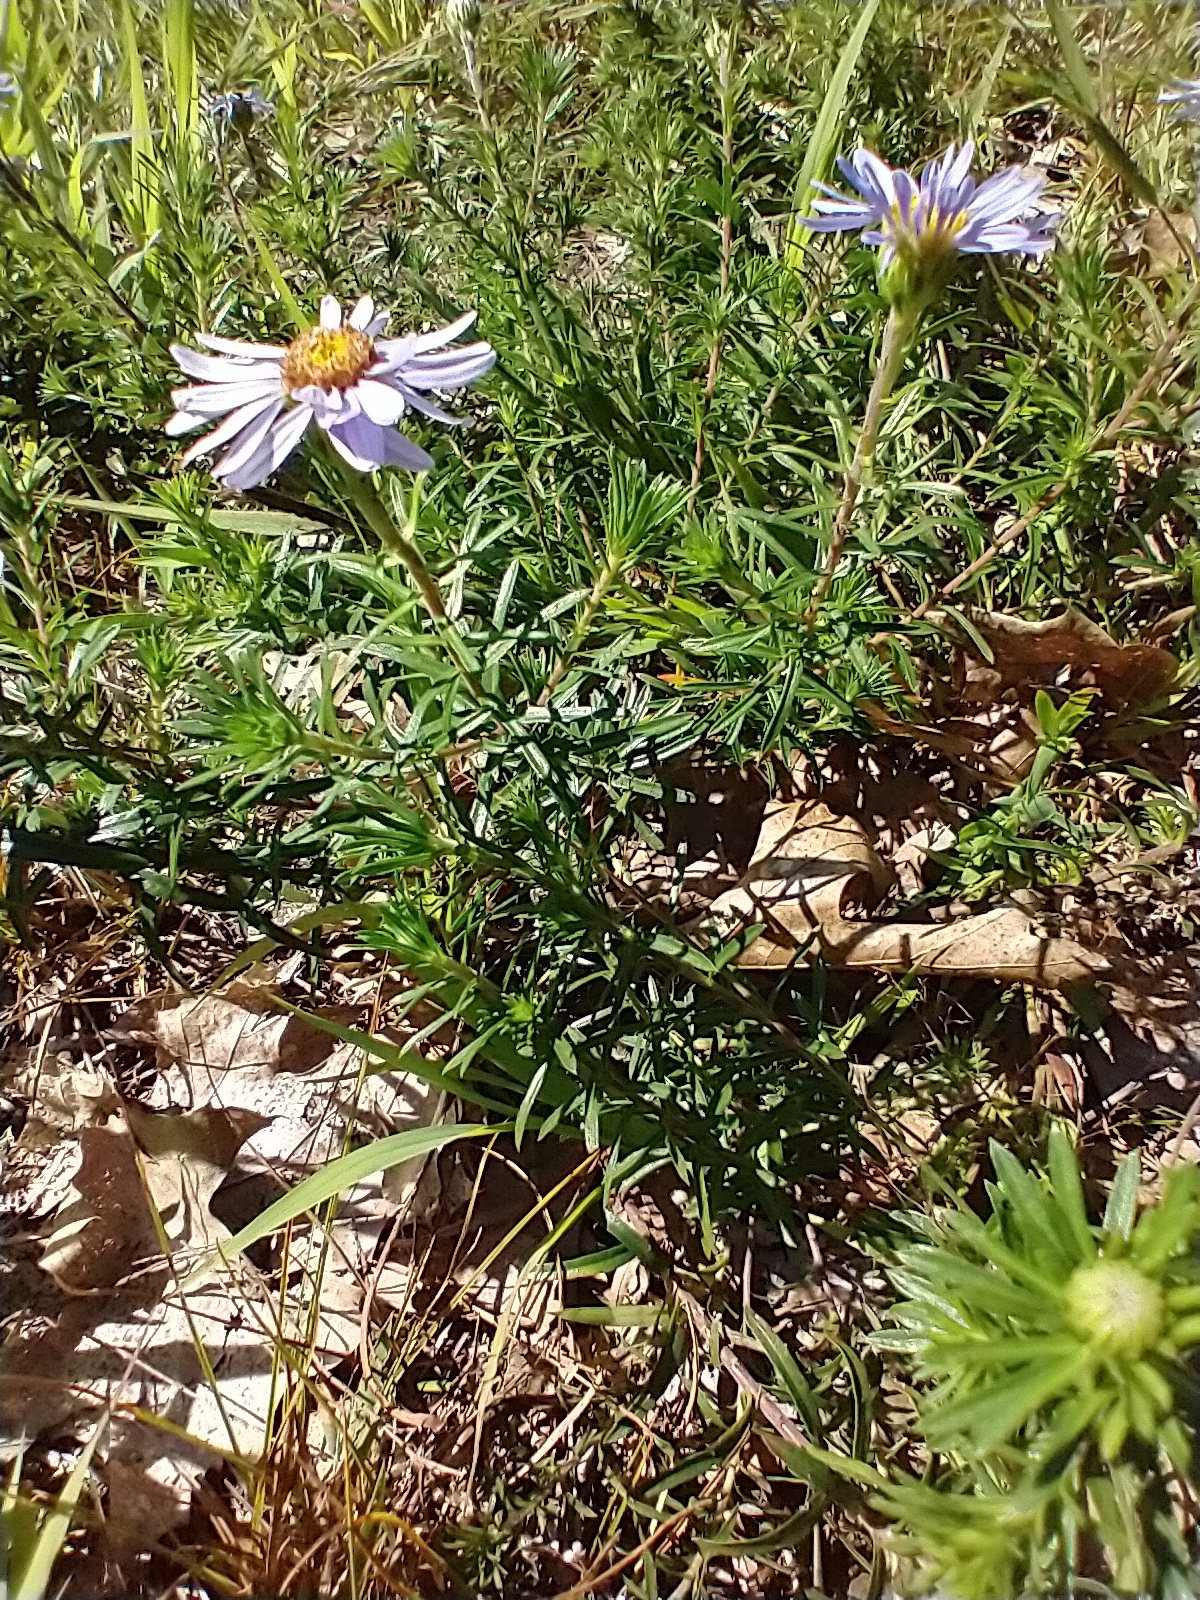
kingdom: Plantae
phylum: Tracheophyta
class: Magnoliopsida
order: Asterales
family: Asteraceae
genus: Ionactis
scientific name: Ionactis linariifolia
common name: Flax-leaf aster
